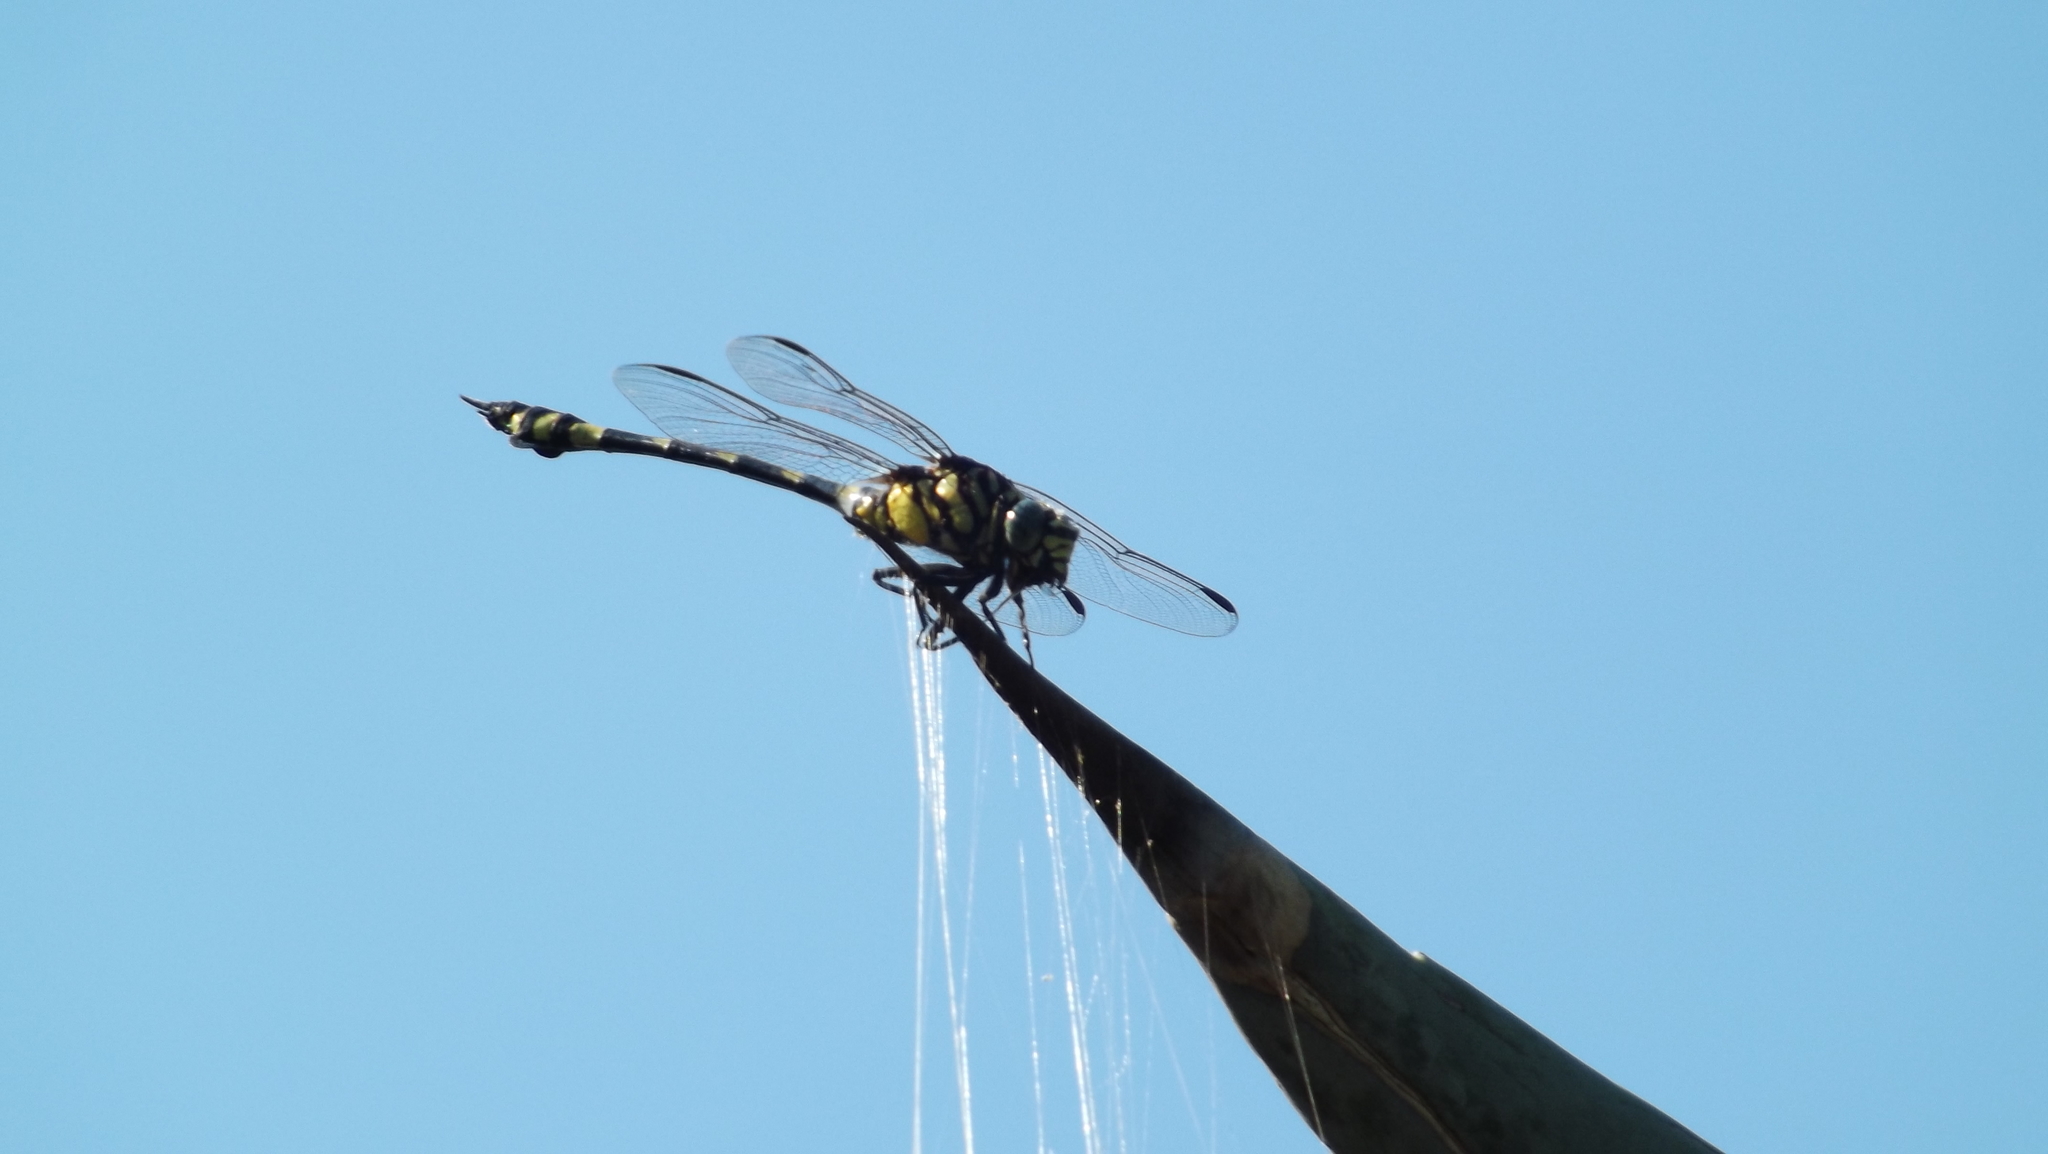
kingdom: Animalia
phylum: Arthropoda
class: Insecta
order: Odonata
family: Gomphidae
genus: Ictinogomphus
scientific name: Ictinogomphus australis
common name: Australian tiger
